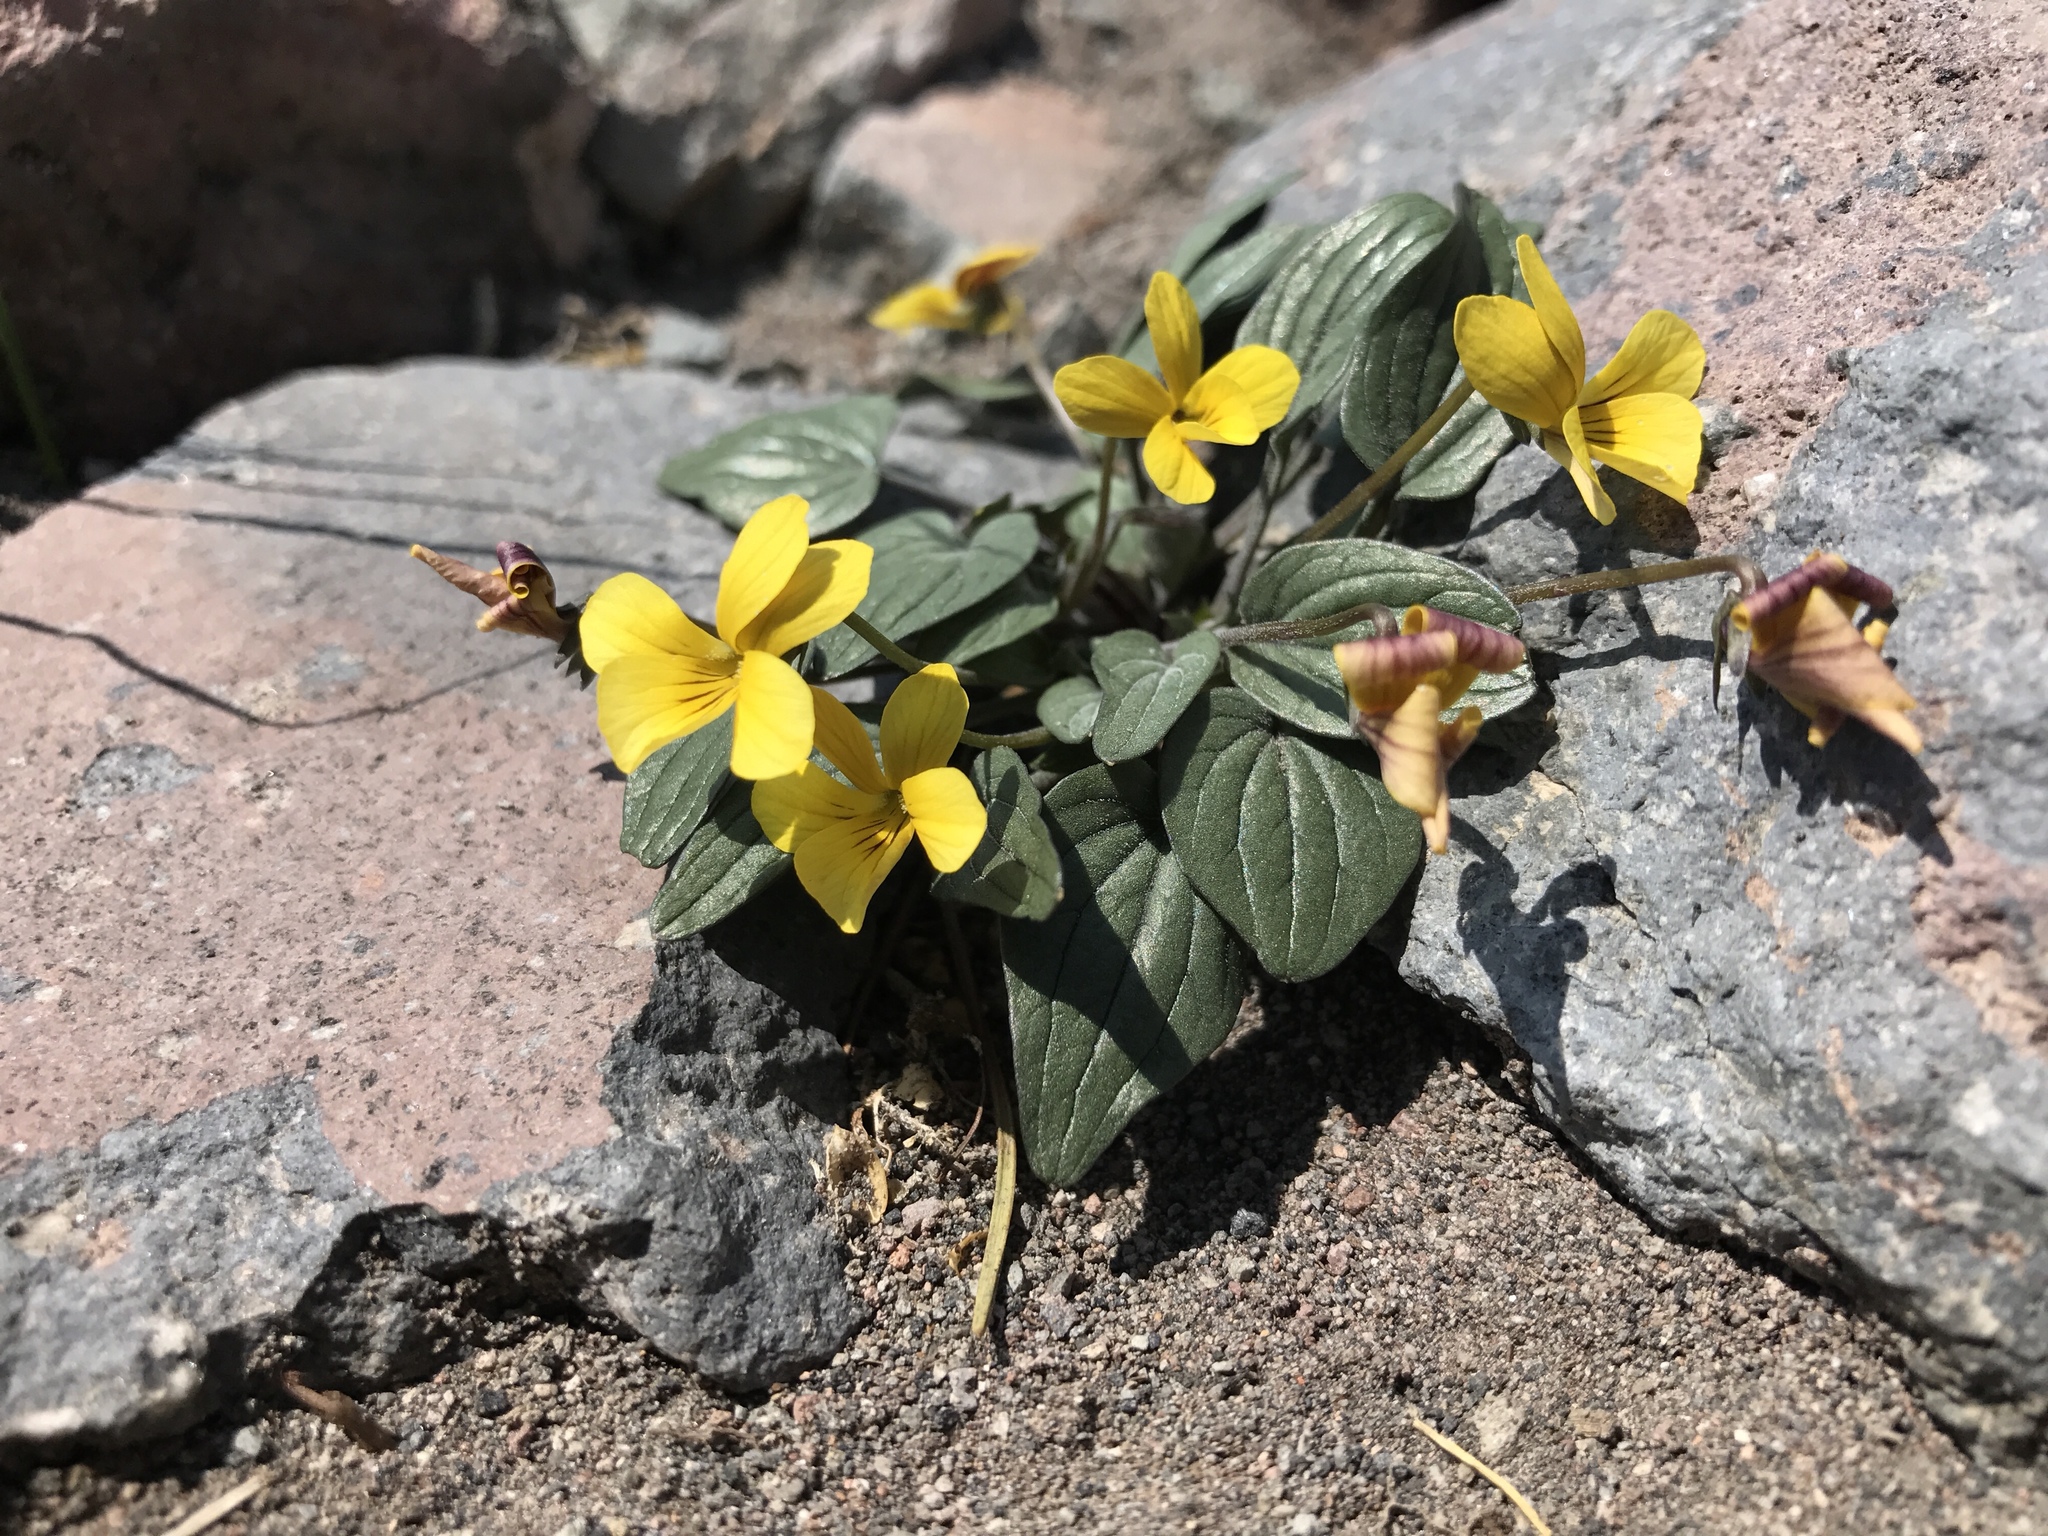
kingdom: Plantae
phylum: Tracheophyta
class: Magnoliopsida
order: Malpighiales
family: Violaceae
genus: Viola
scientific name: Viola purpurea
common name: Pine violet
